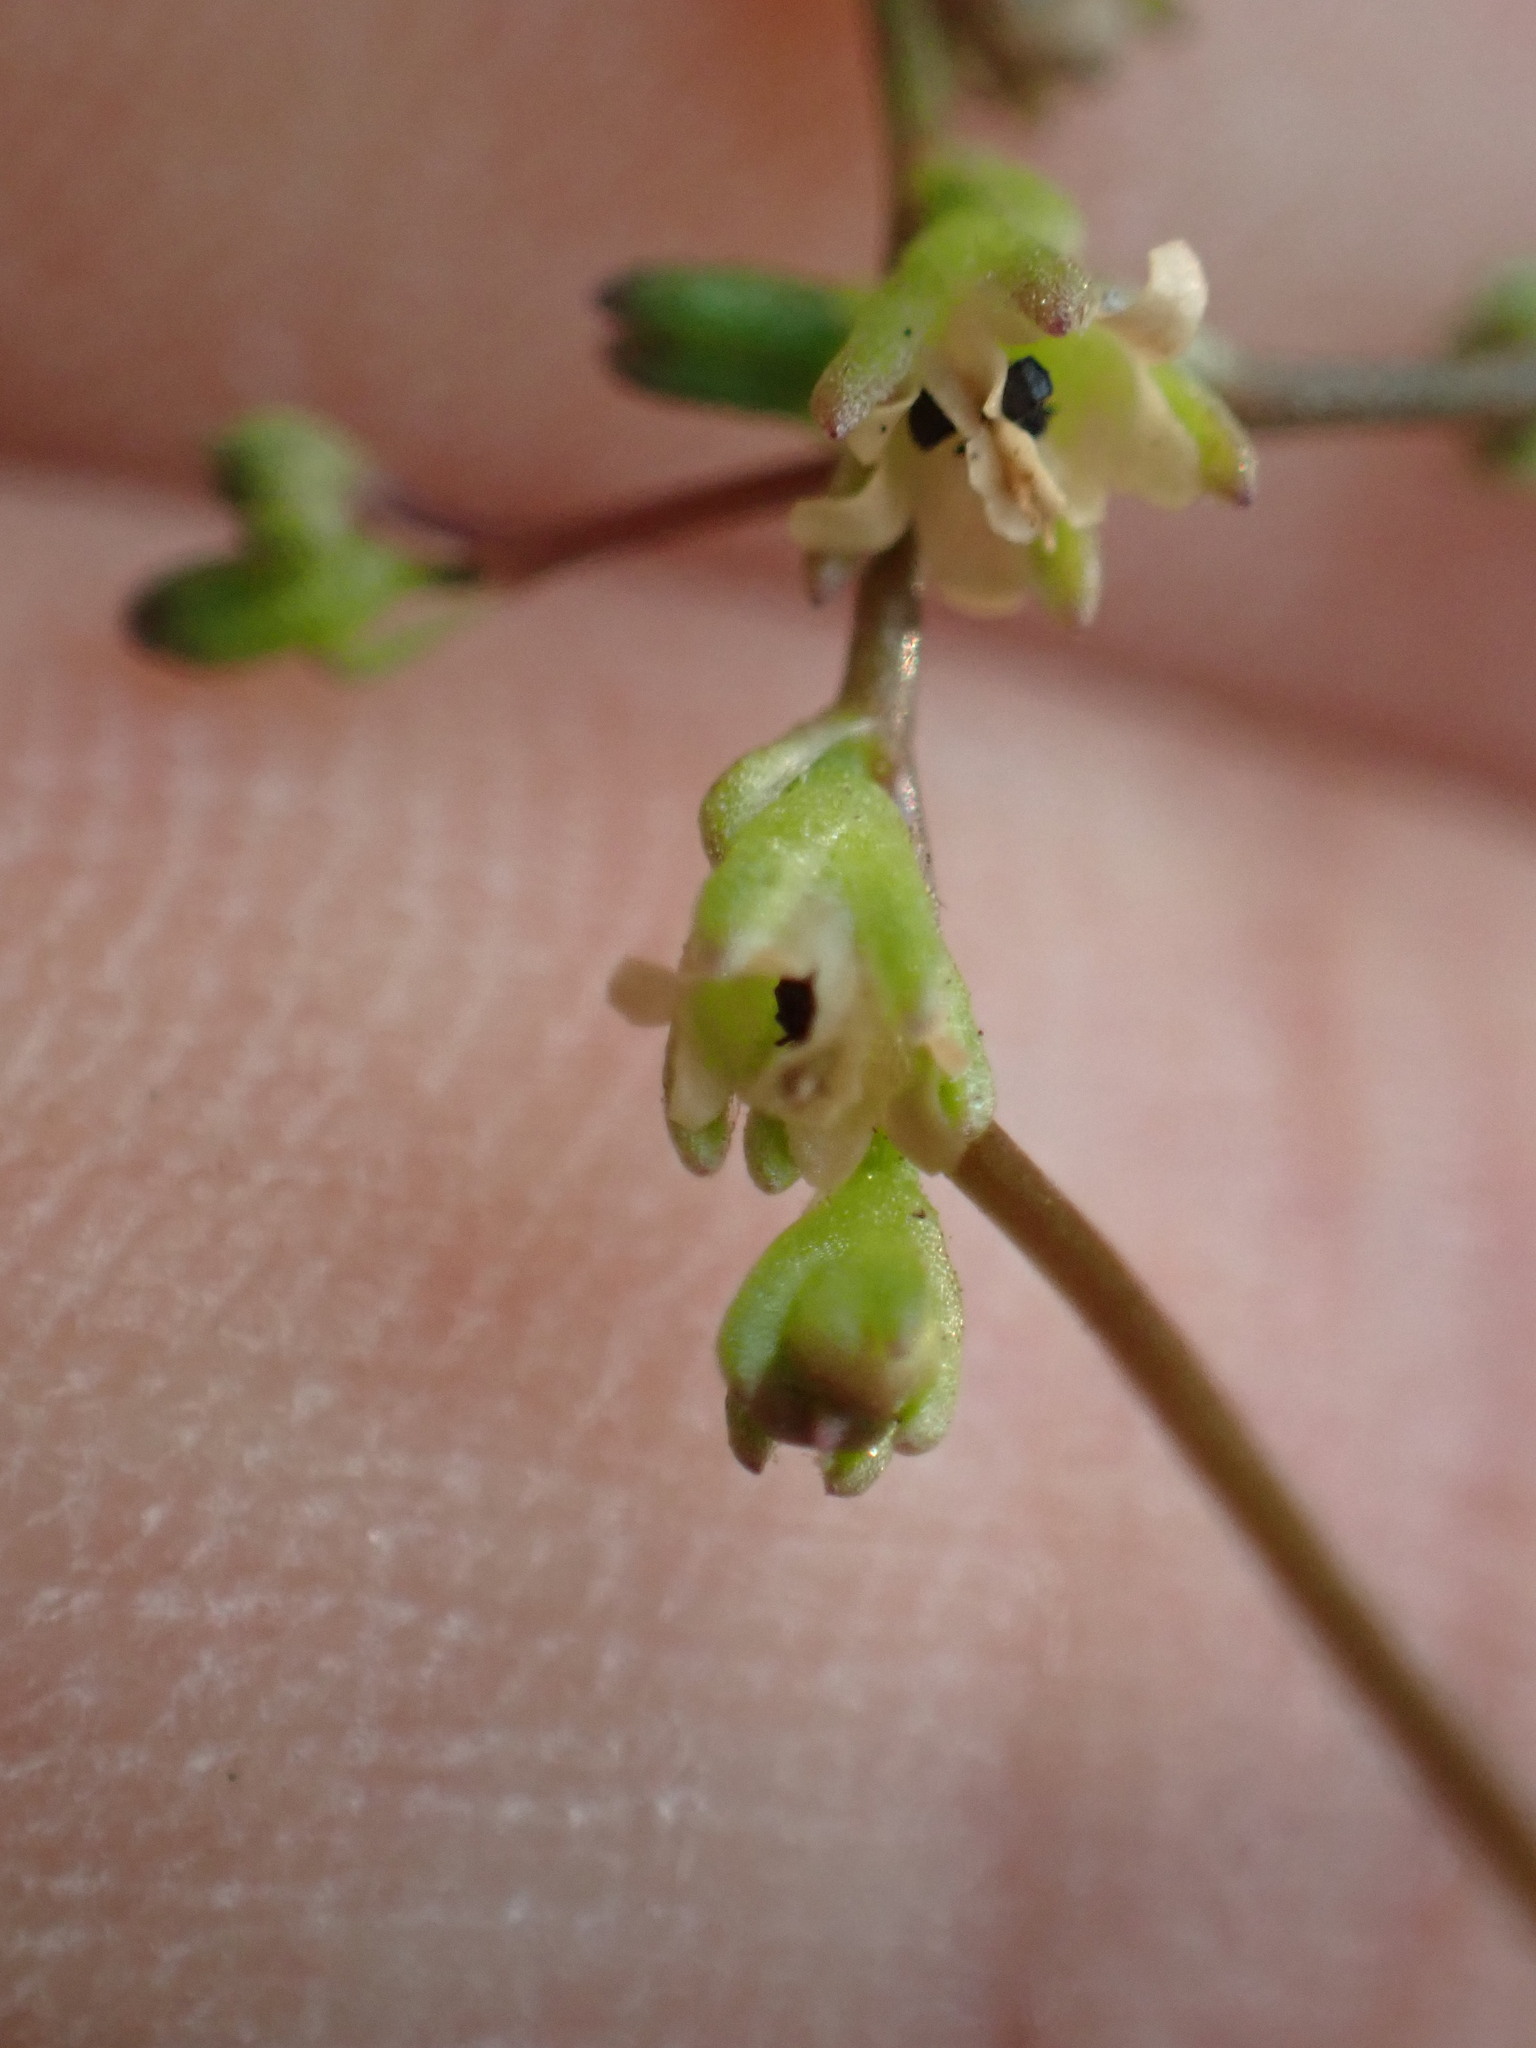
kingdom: Plantae
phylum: Tracheophyta
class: Magnoliopsida
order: Lamiales
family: Plantaginaceae
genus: Nuttallanthus
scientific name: Nuttallanthus canadensis
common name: Blue toadflax
